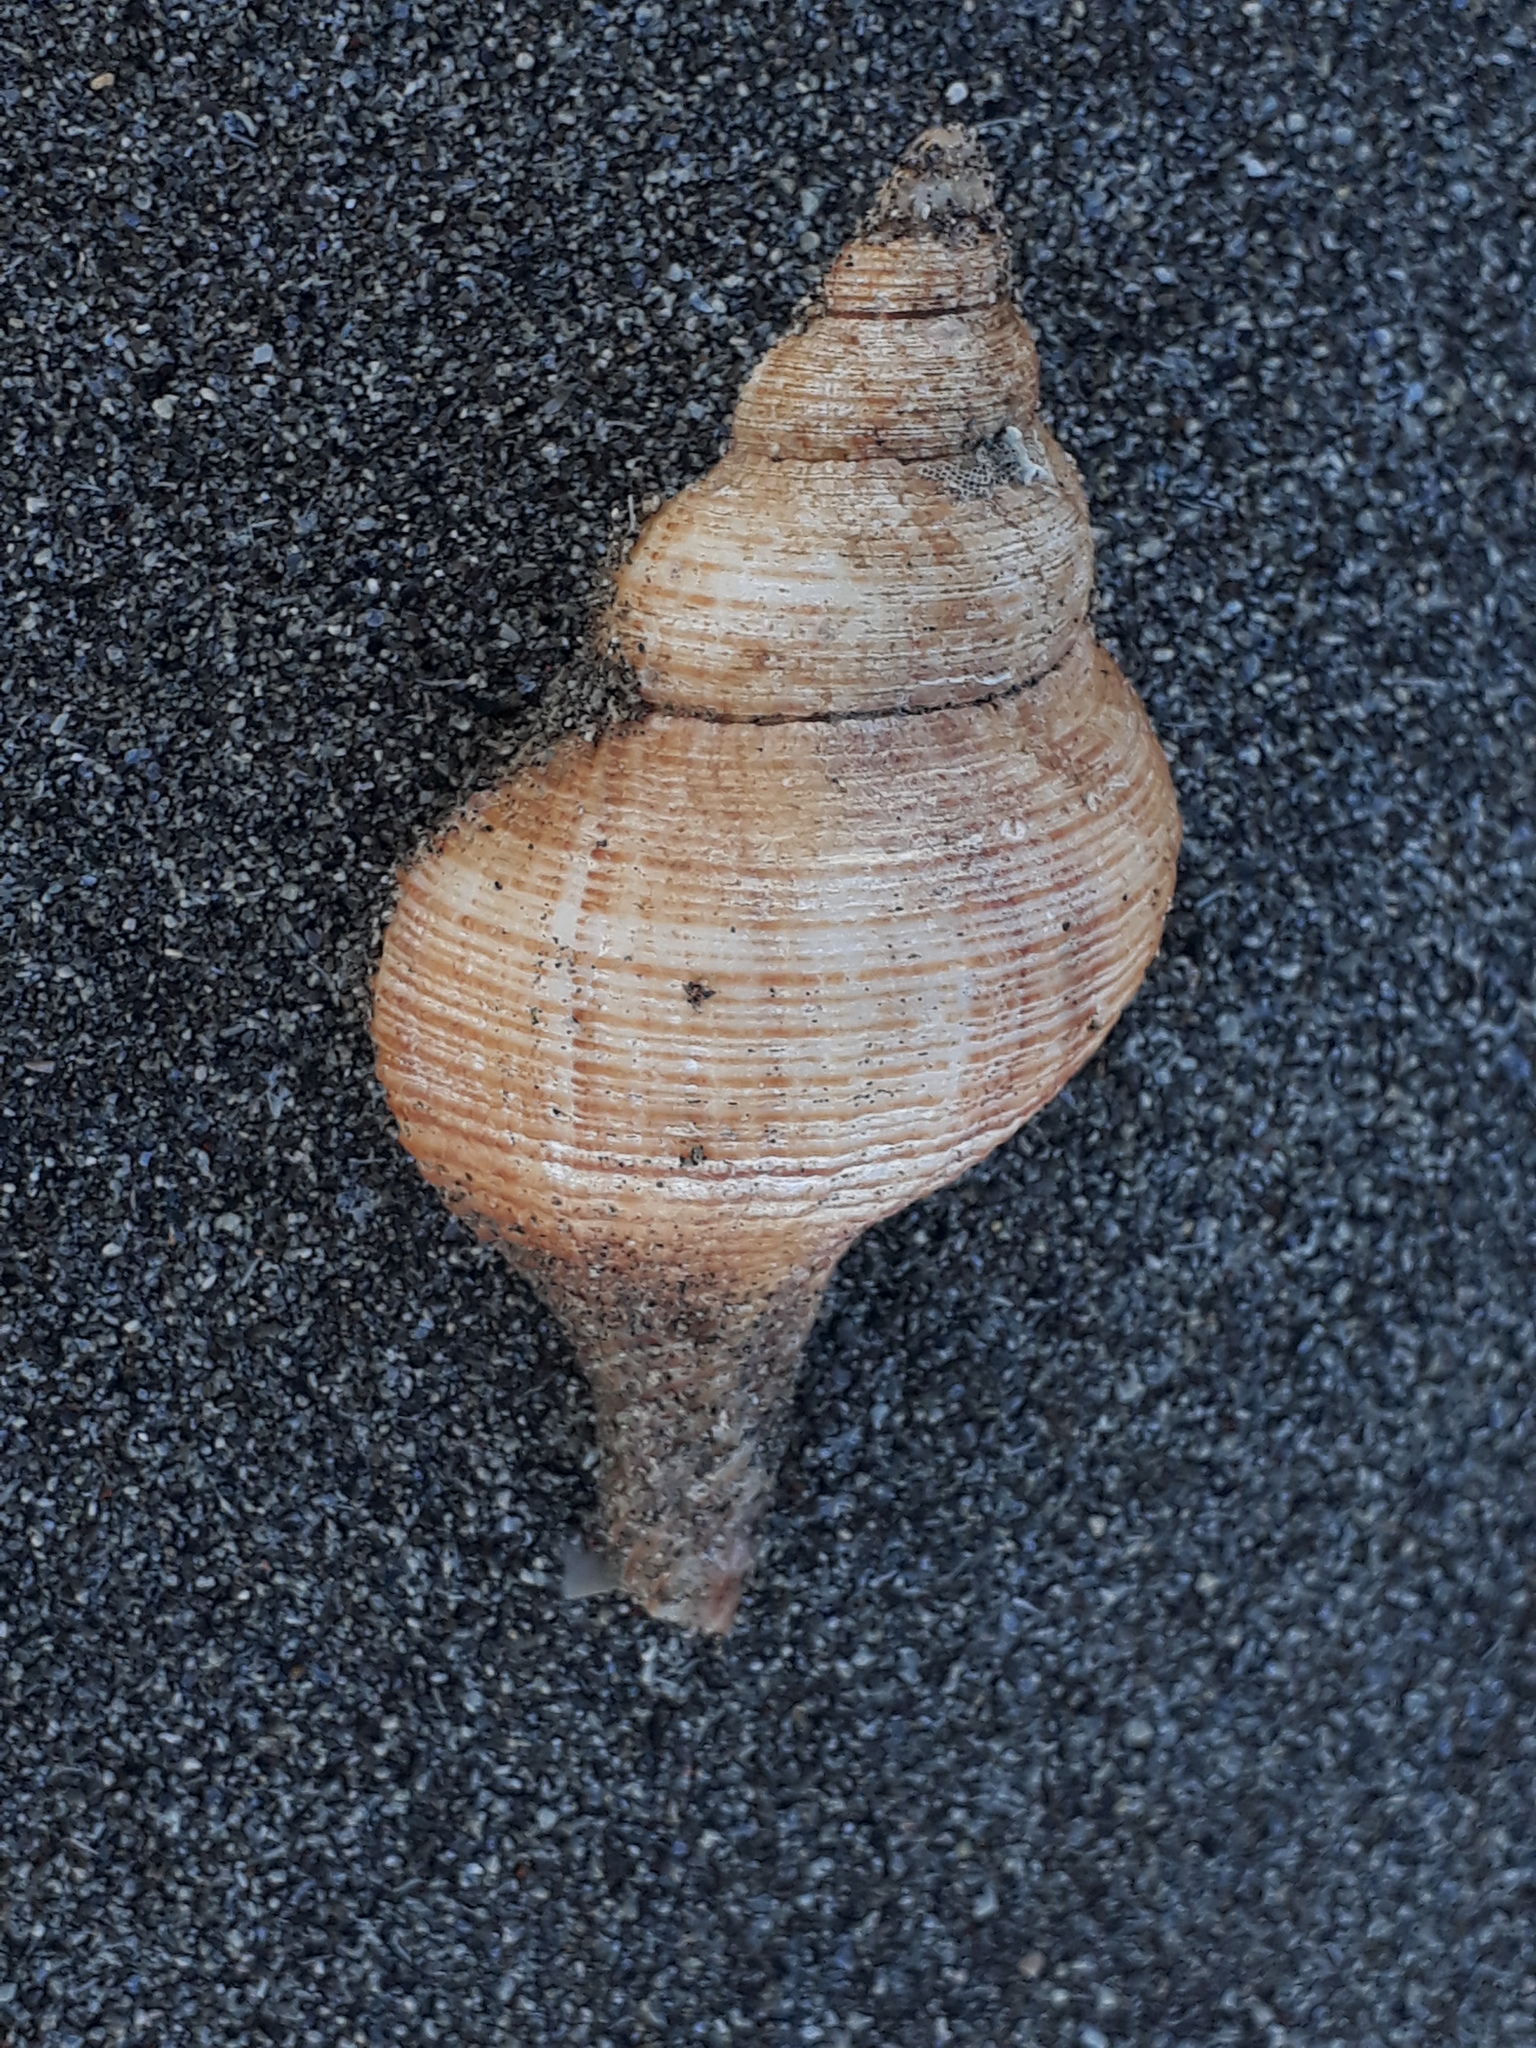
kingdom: Animalia
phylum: Mollusca
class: Gastropoda
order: Neogastropoda
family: Austrosiphonidae
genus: Penion
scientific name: Penion sulcatus
